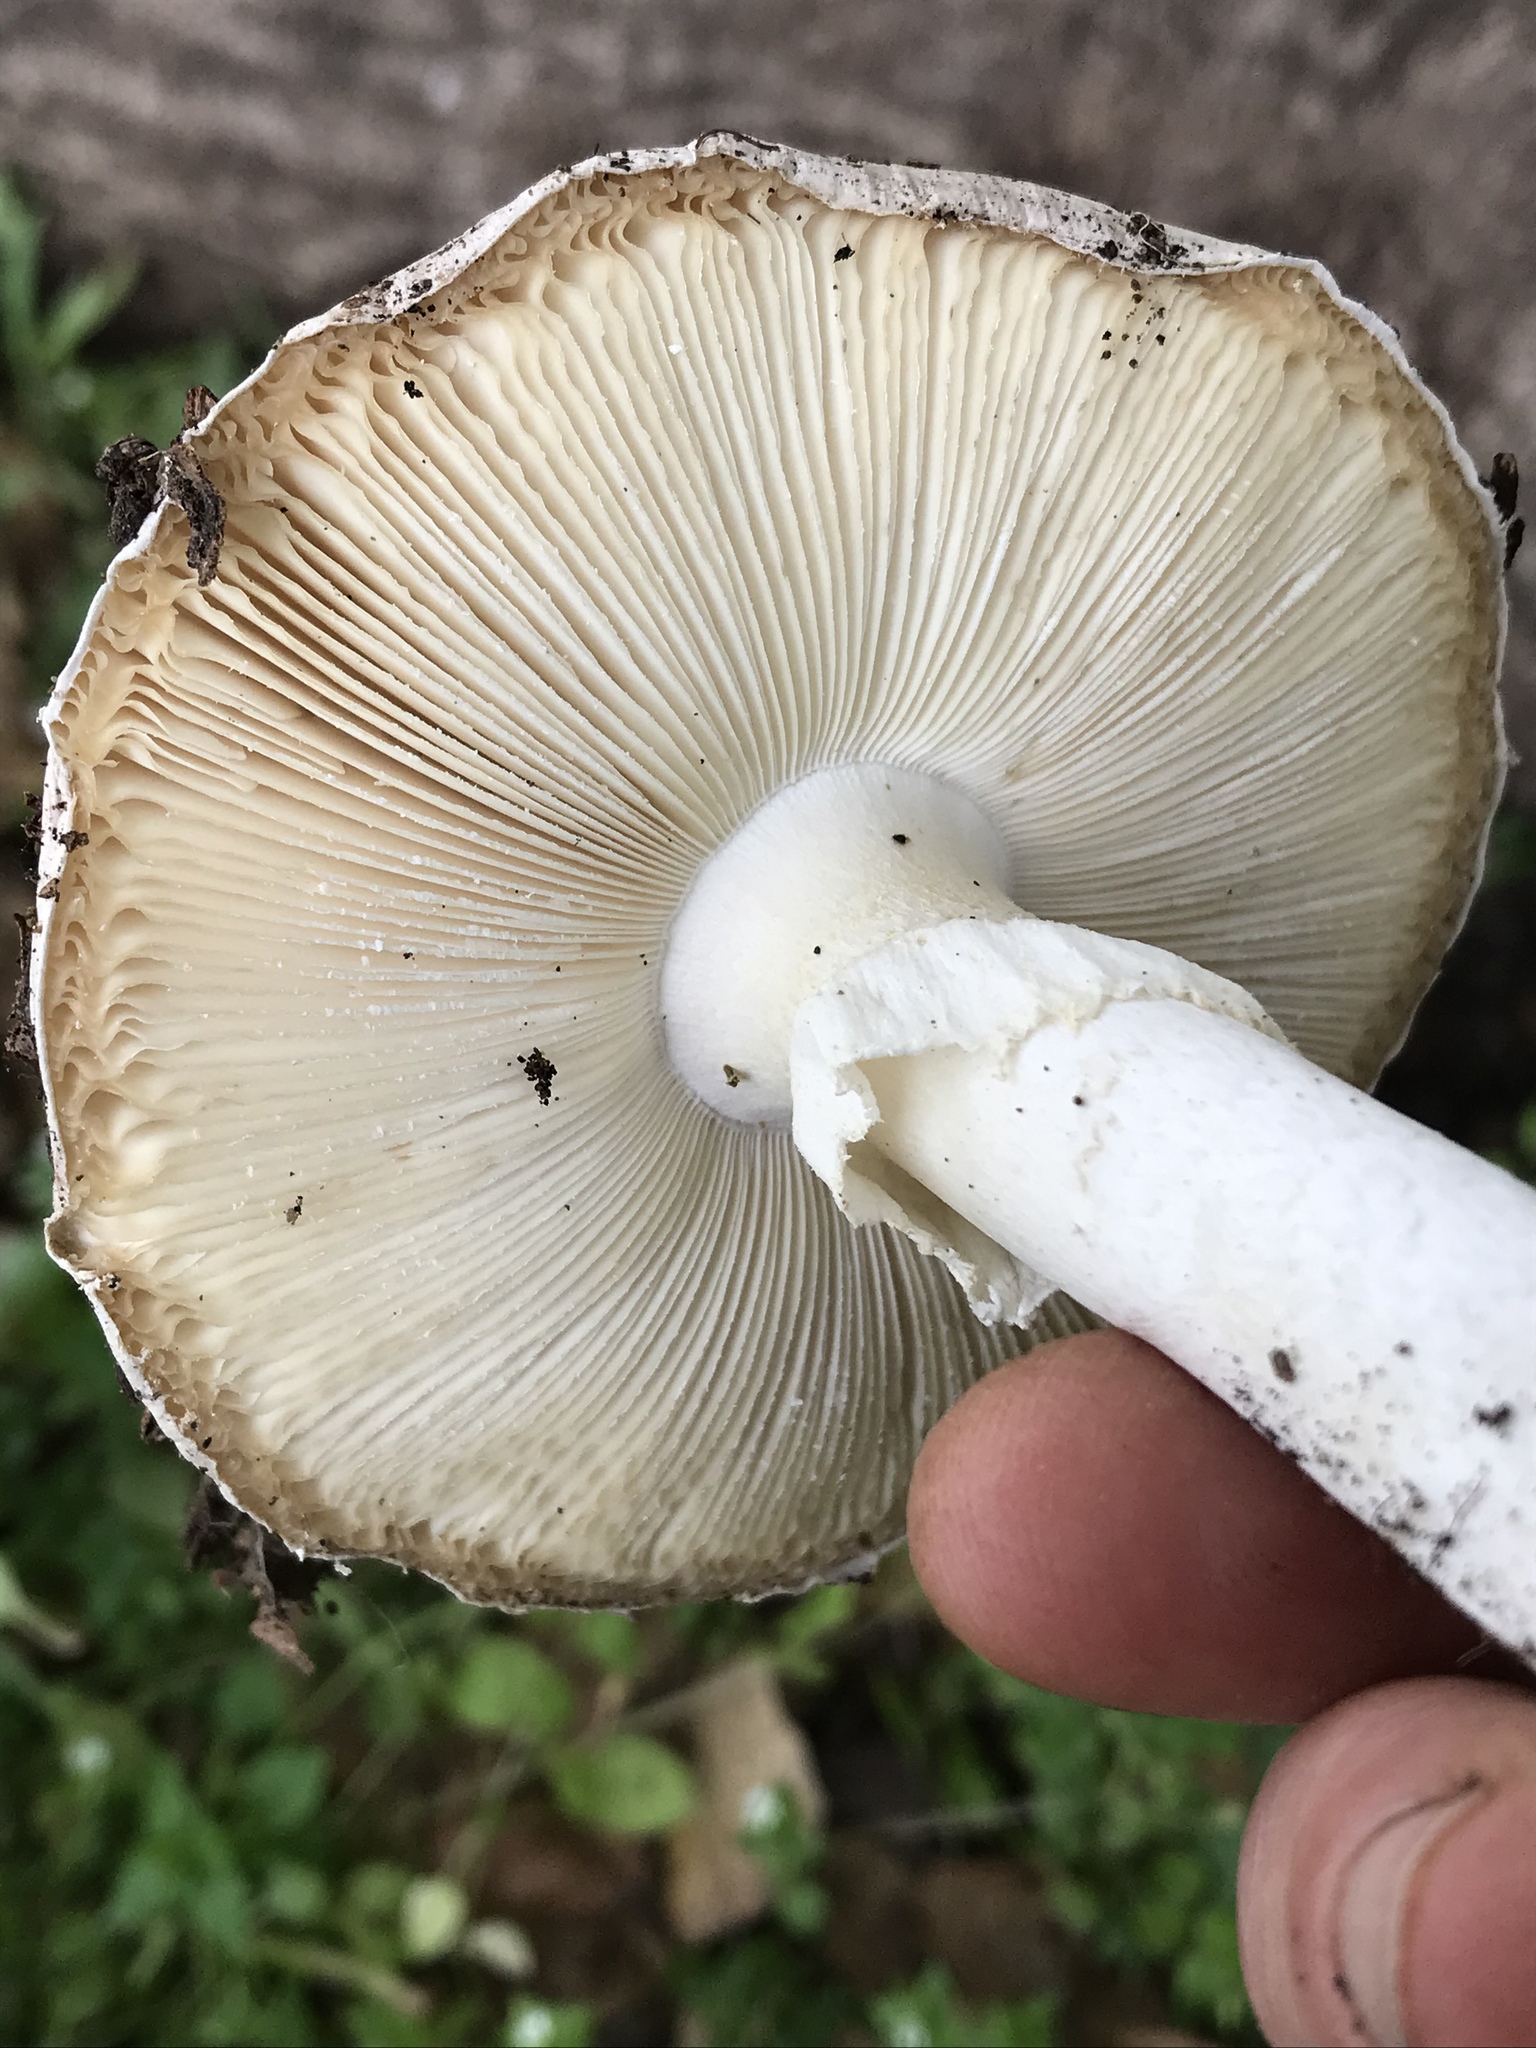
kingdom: Fungi
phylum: Basidiomycota
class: Agaricomycetes
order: Agaricales
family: Amanitaceae
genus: Amanita
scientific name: Amanita ocreata
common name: Western destroying angel
